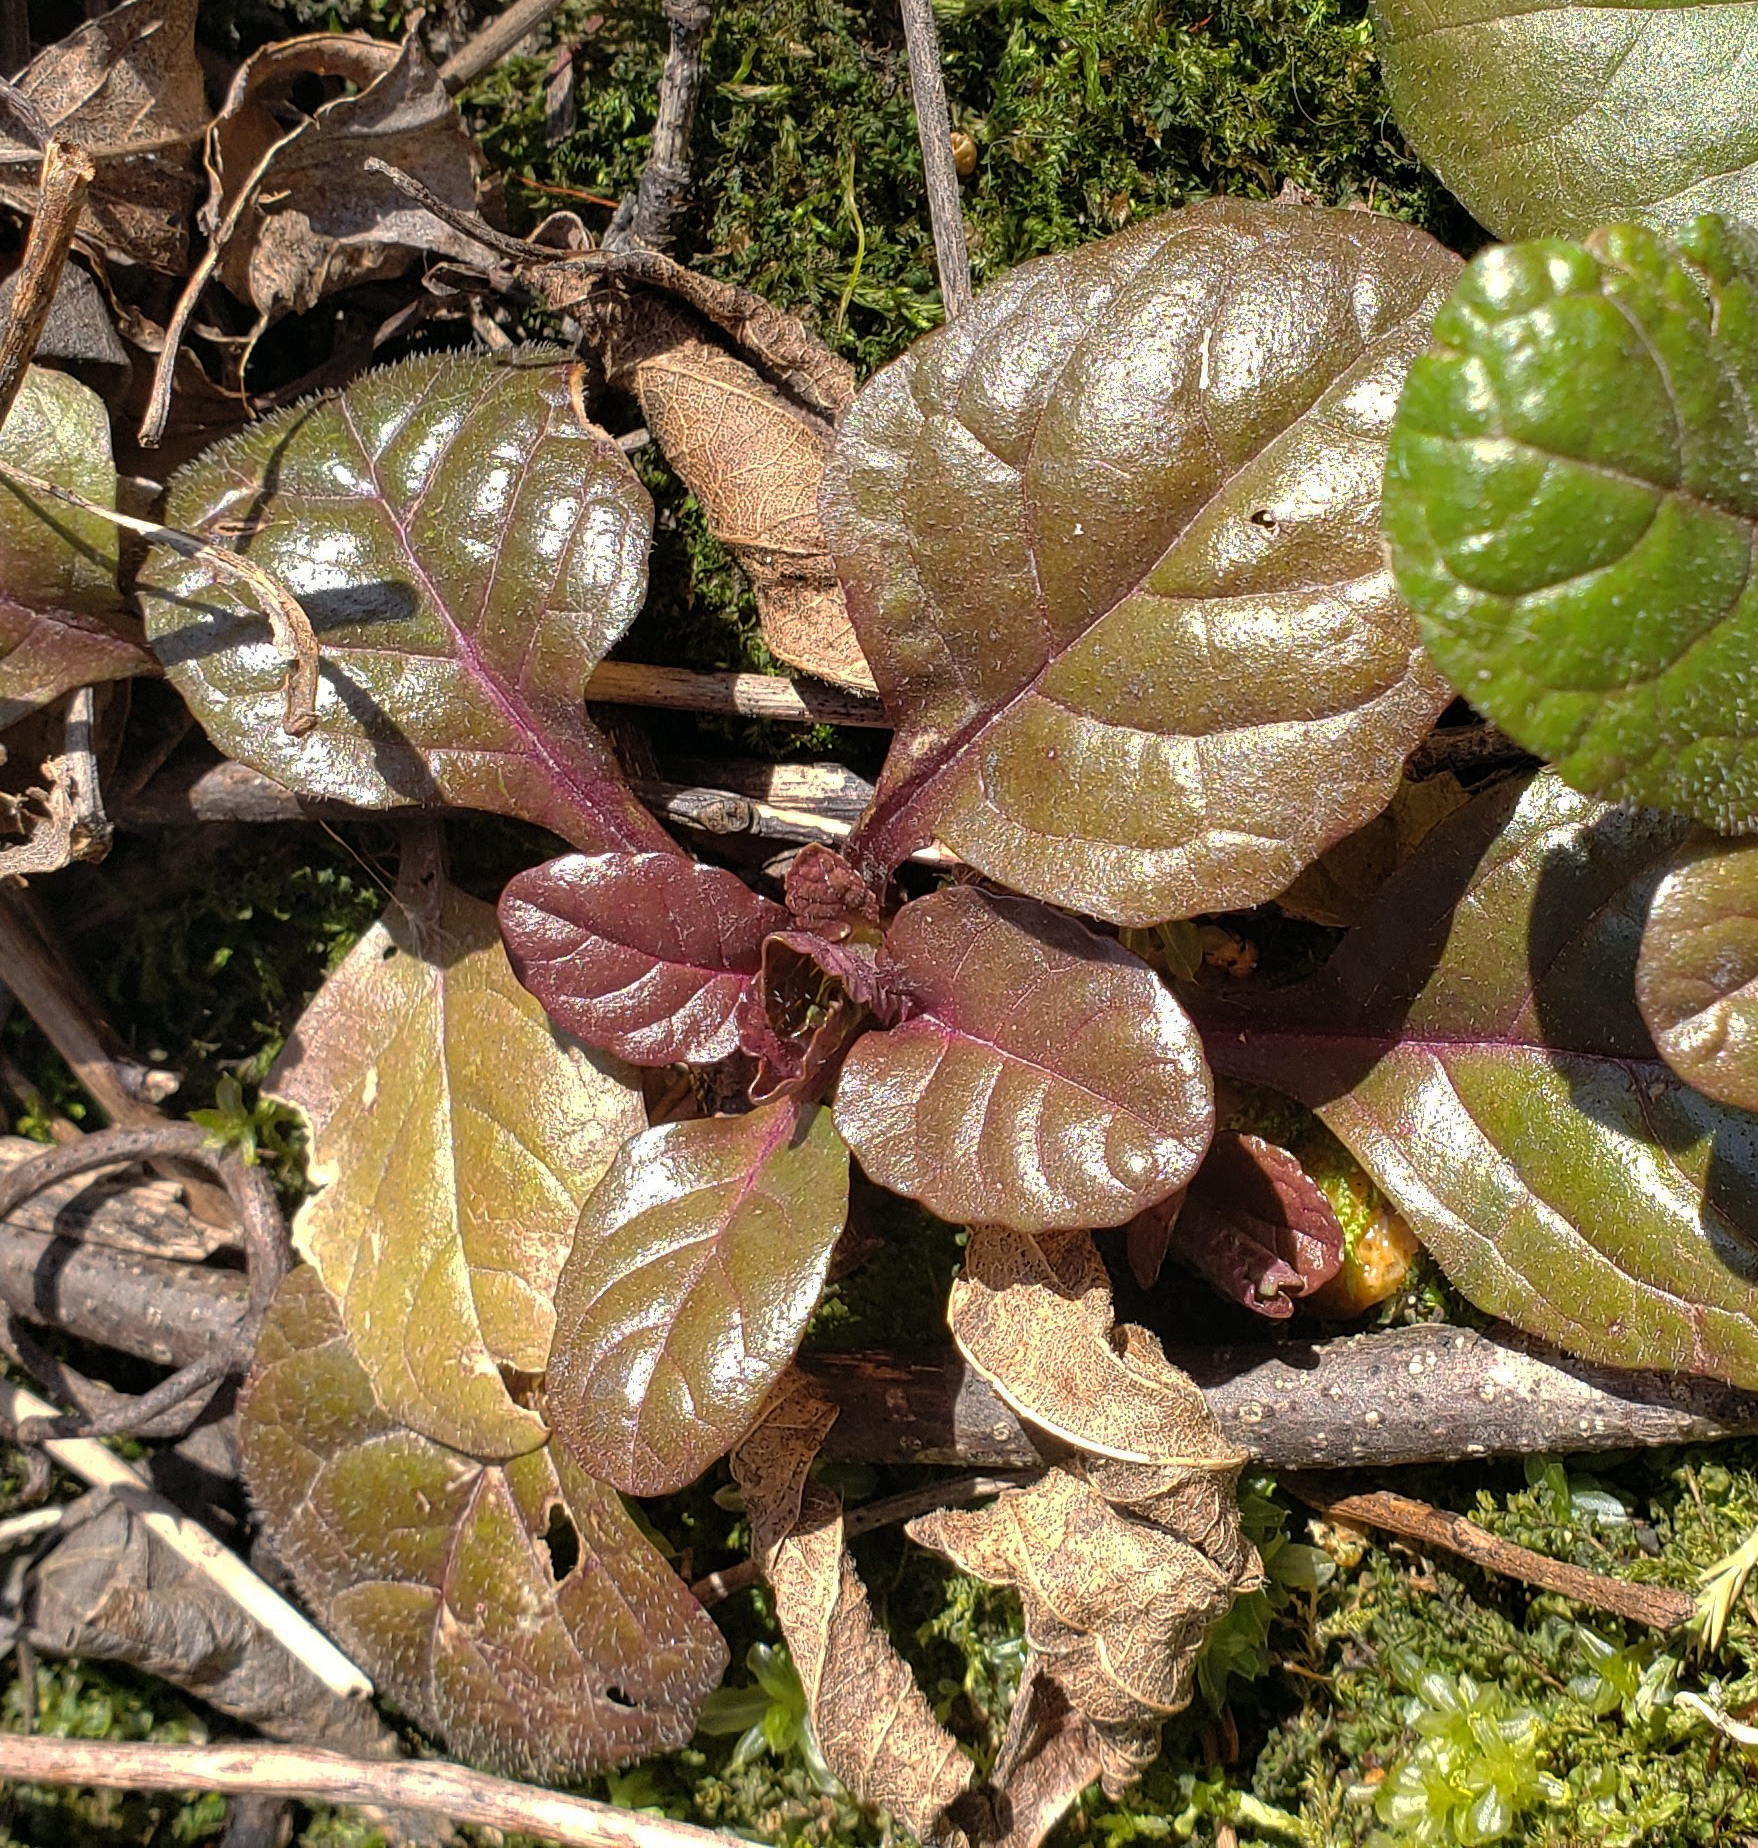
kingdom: Plantae
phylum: Tracheophyta
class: Magnoliopsida
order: Lamiales
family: Lamiaceae
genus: Ajuga
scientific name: Ajuga reptans
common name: Bugle
